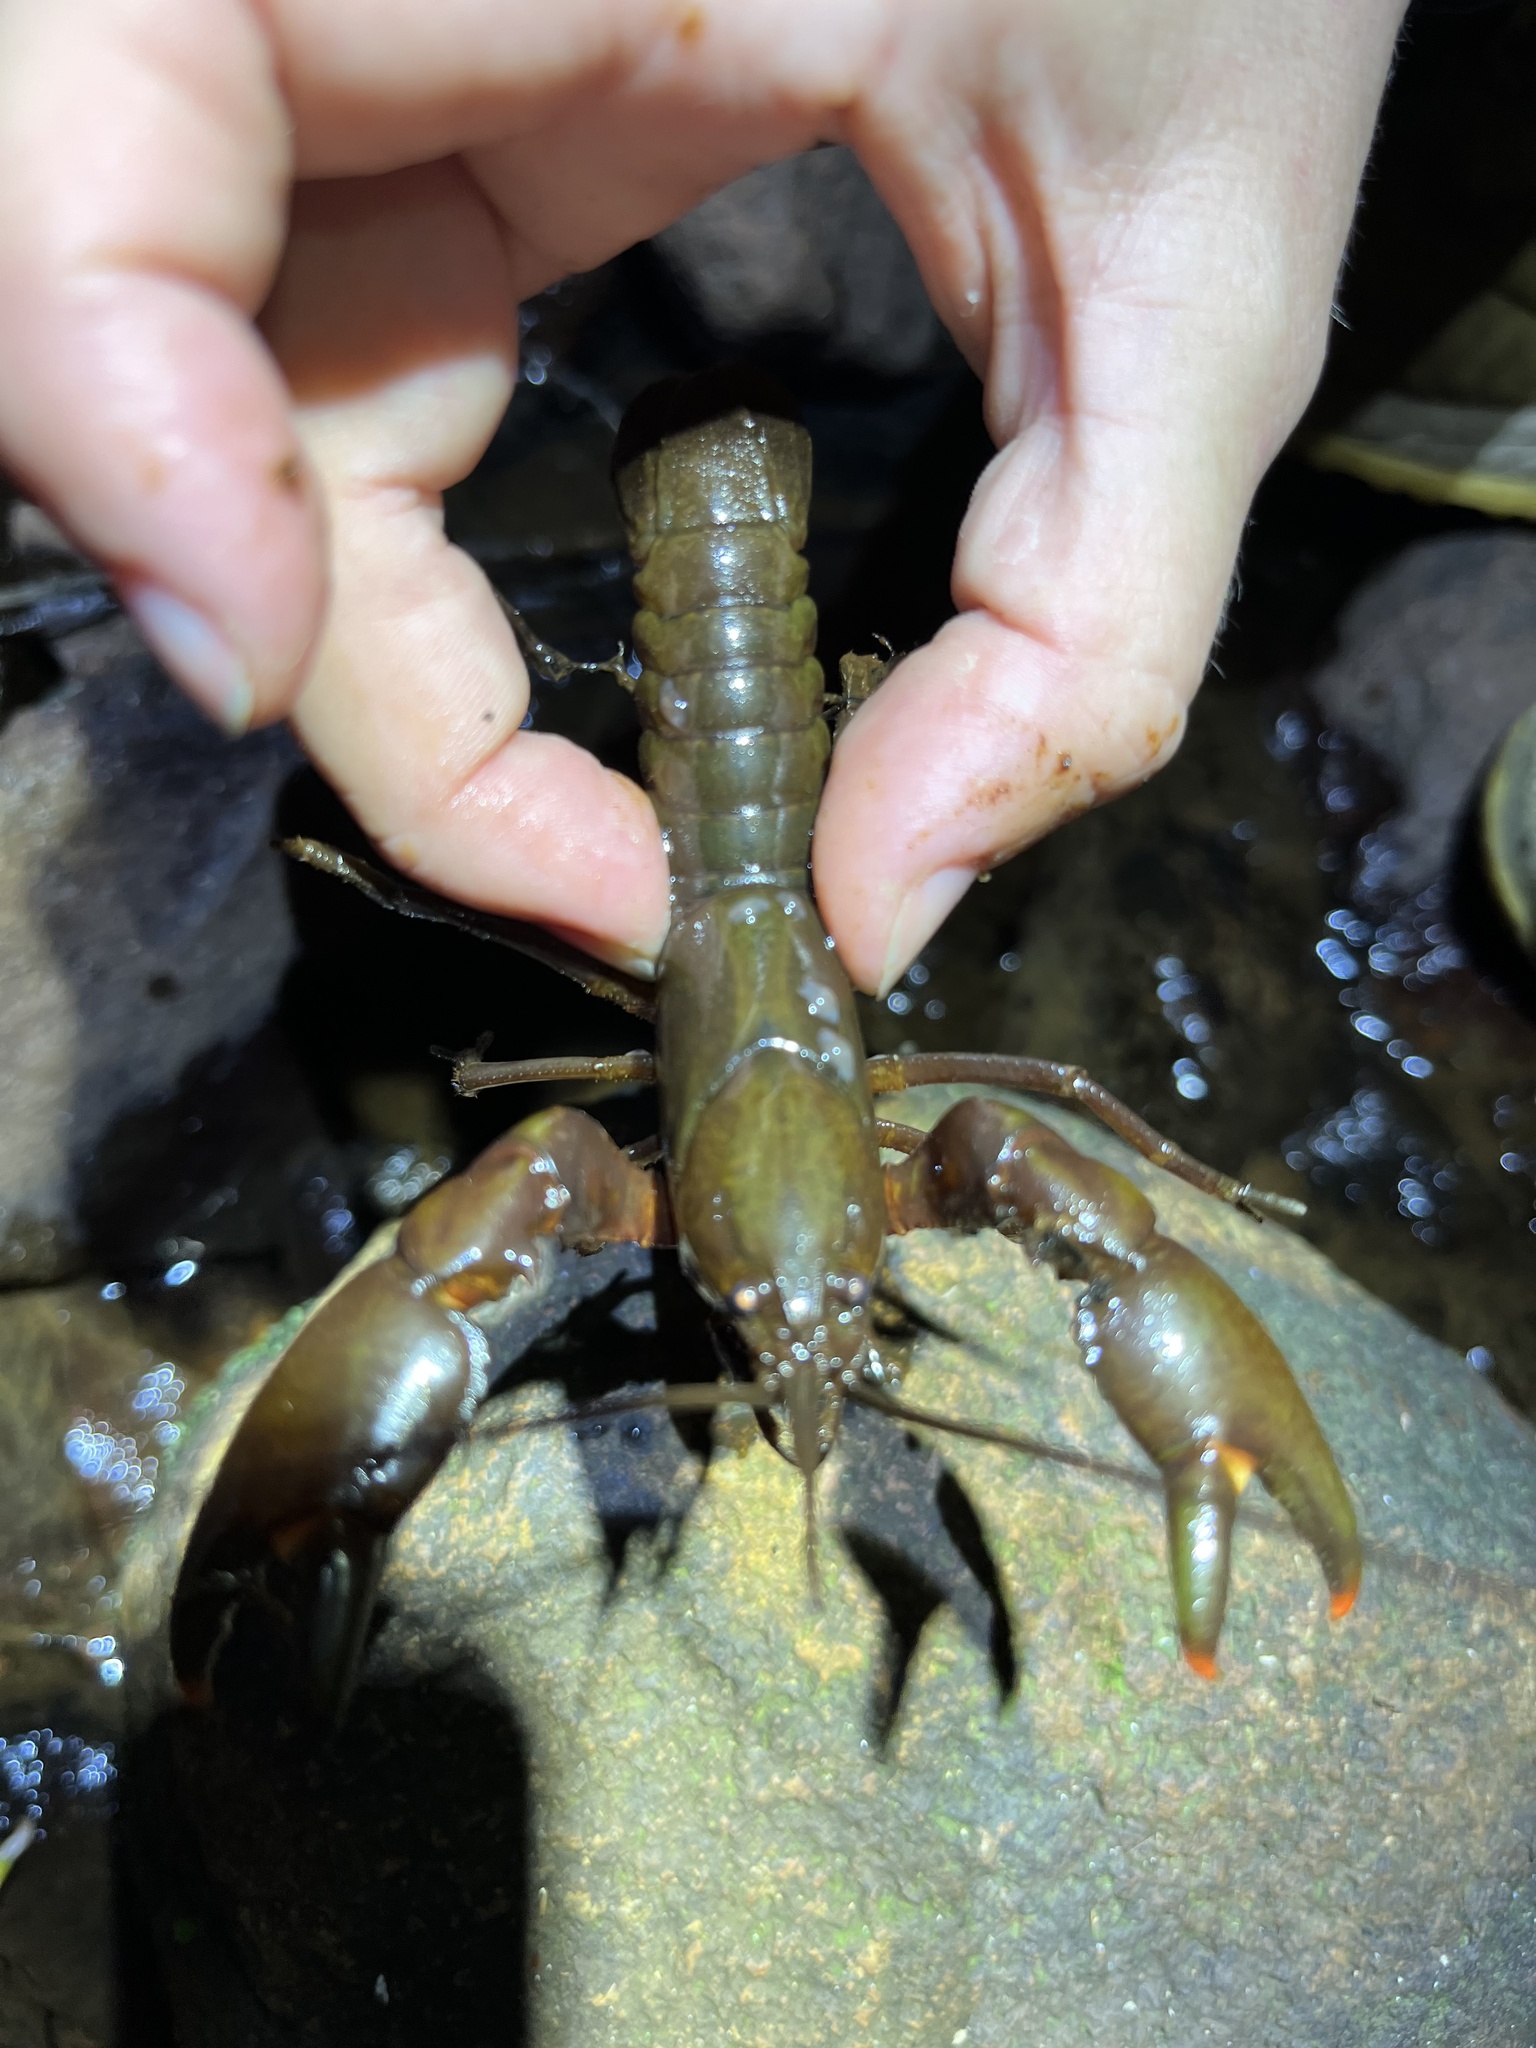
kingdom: Animalia
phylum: Arthropoda
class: Malacostraca
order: Decapoda
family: Parastacidae
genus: Cherax
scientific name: Cherax depressus
